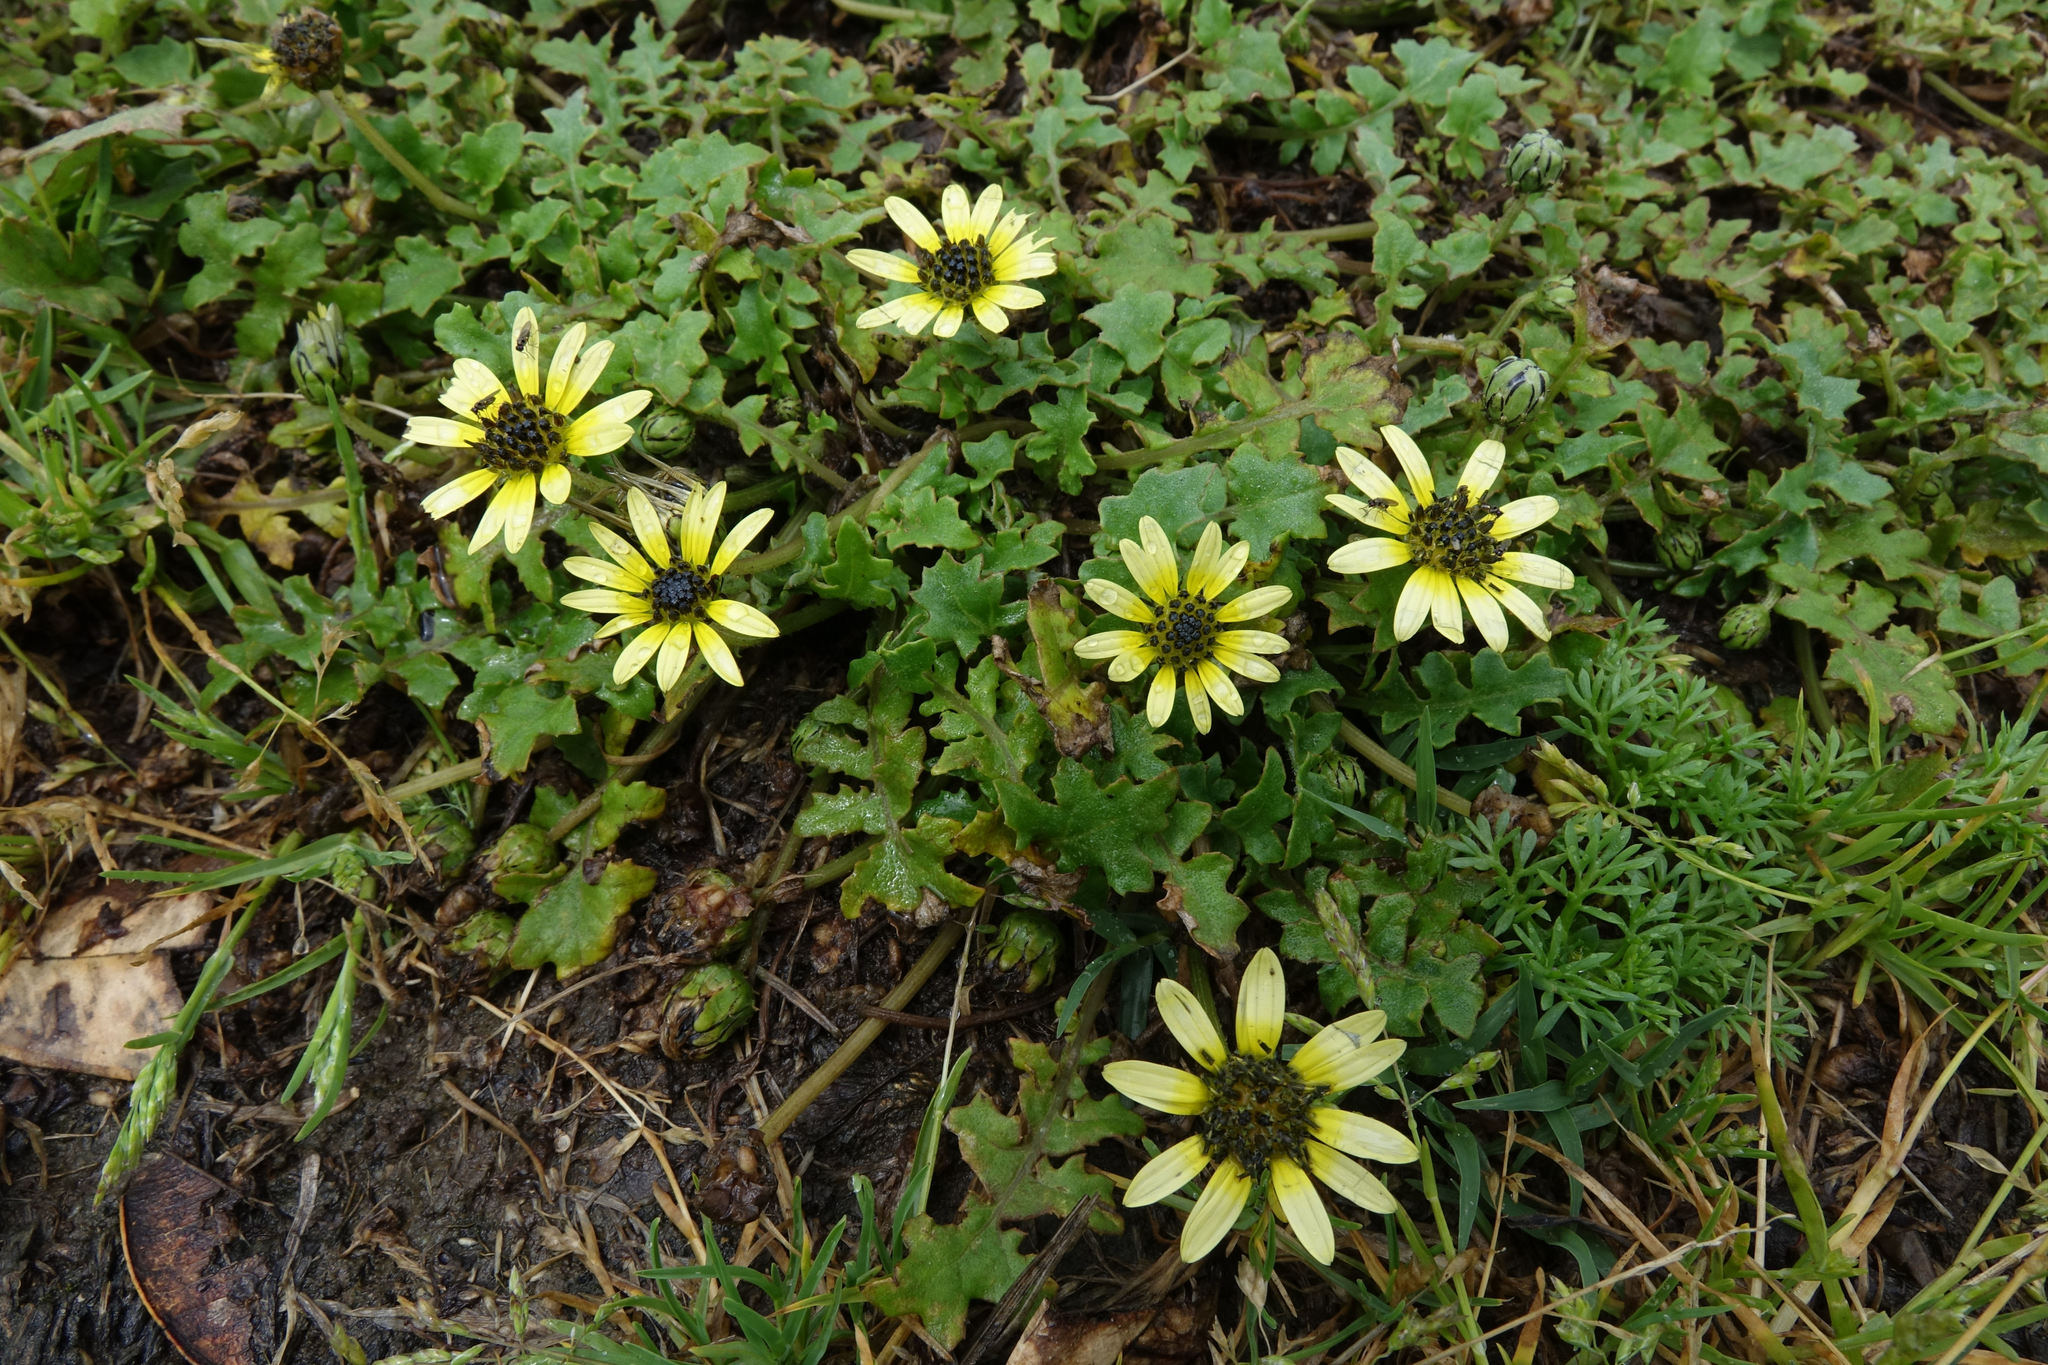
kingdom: Plantae
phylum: Tracheophyta
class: Magnoliopsida
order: Asterales
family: Asteraceae
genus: Arctotheca
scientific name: Arctotheca calendula
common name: Capeweed
